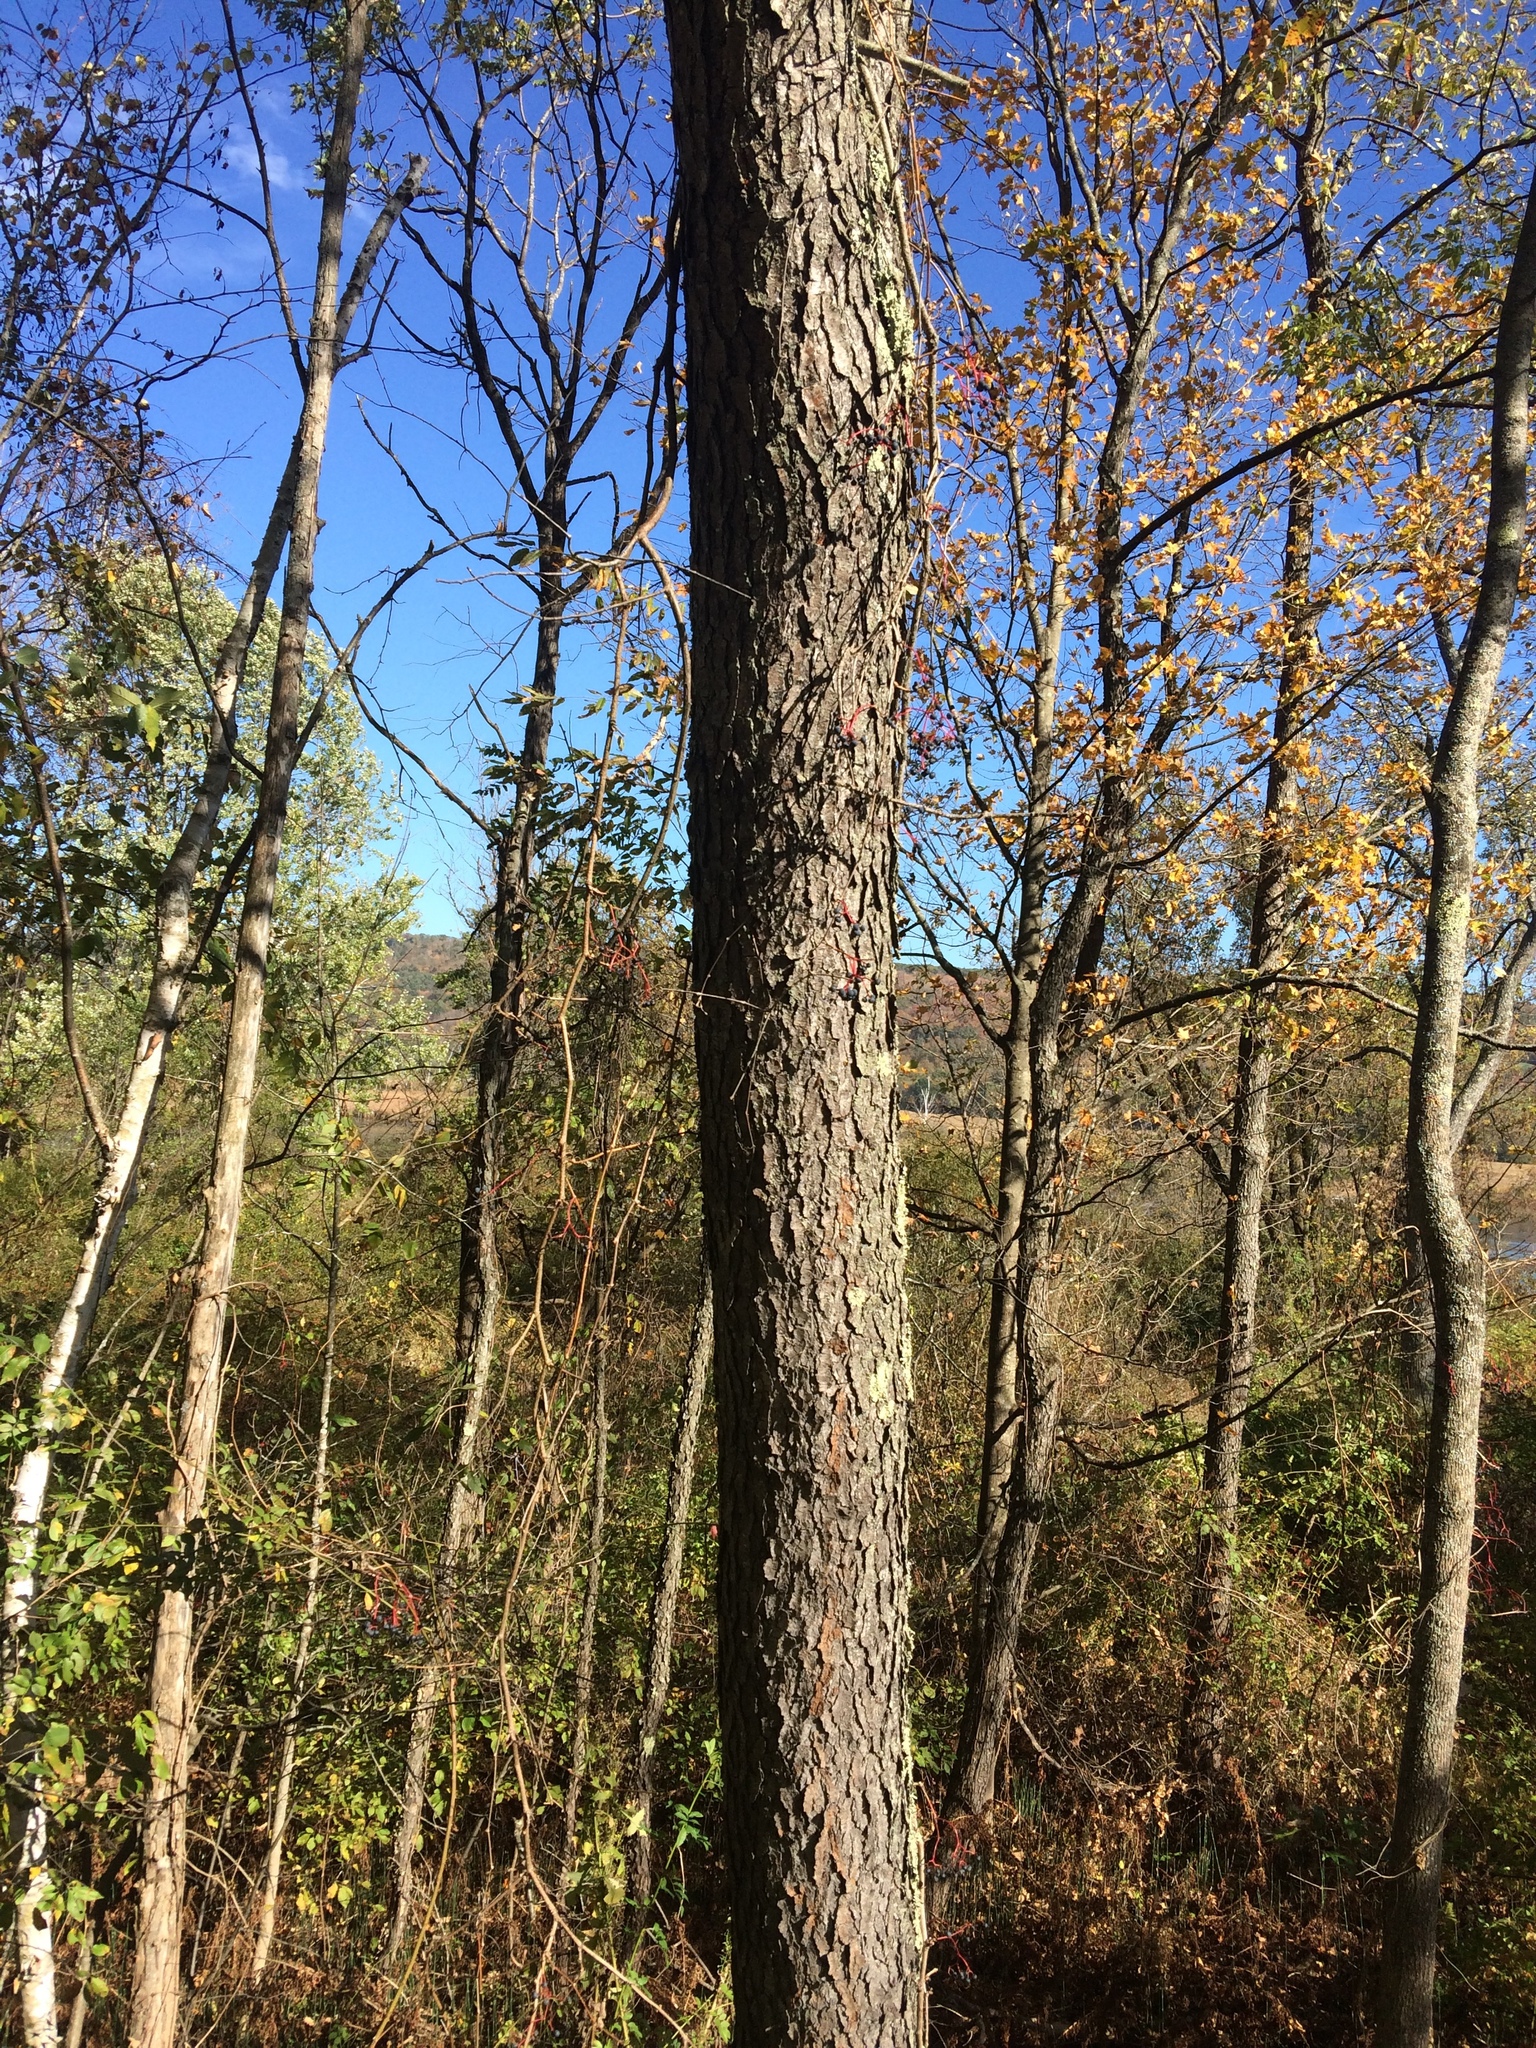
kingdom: Plantae
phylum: Tracheophyta
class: Magnoliopsida
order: Rosales
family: Rosaceae
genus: Prunus
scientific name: Prunus serotina
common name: Black cherry
